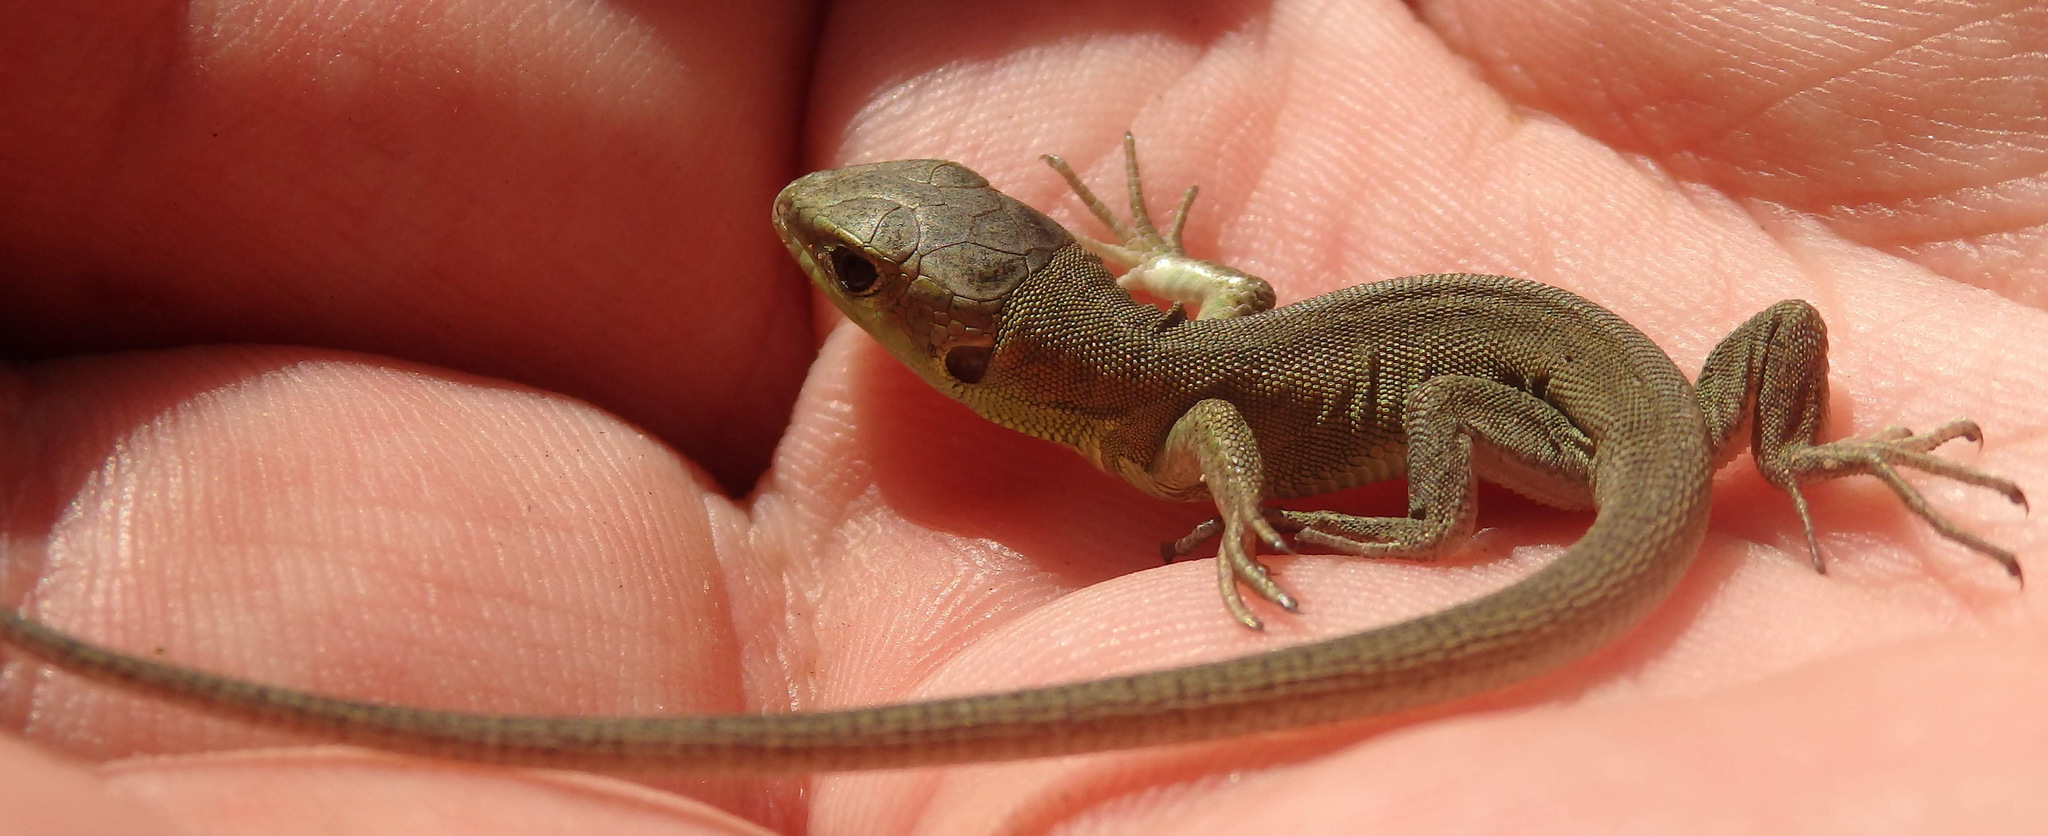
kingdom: Animalia
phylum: Chordata
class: Squamata
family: Lacertidae
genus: Lacerta
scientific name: Lacerta viridis
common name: European green lizard
